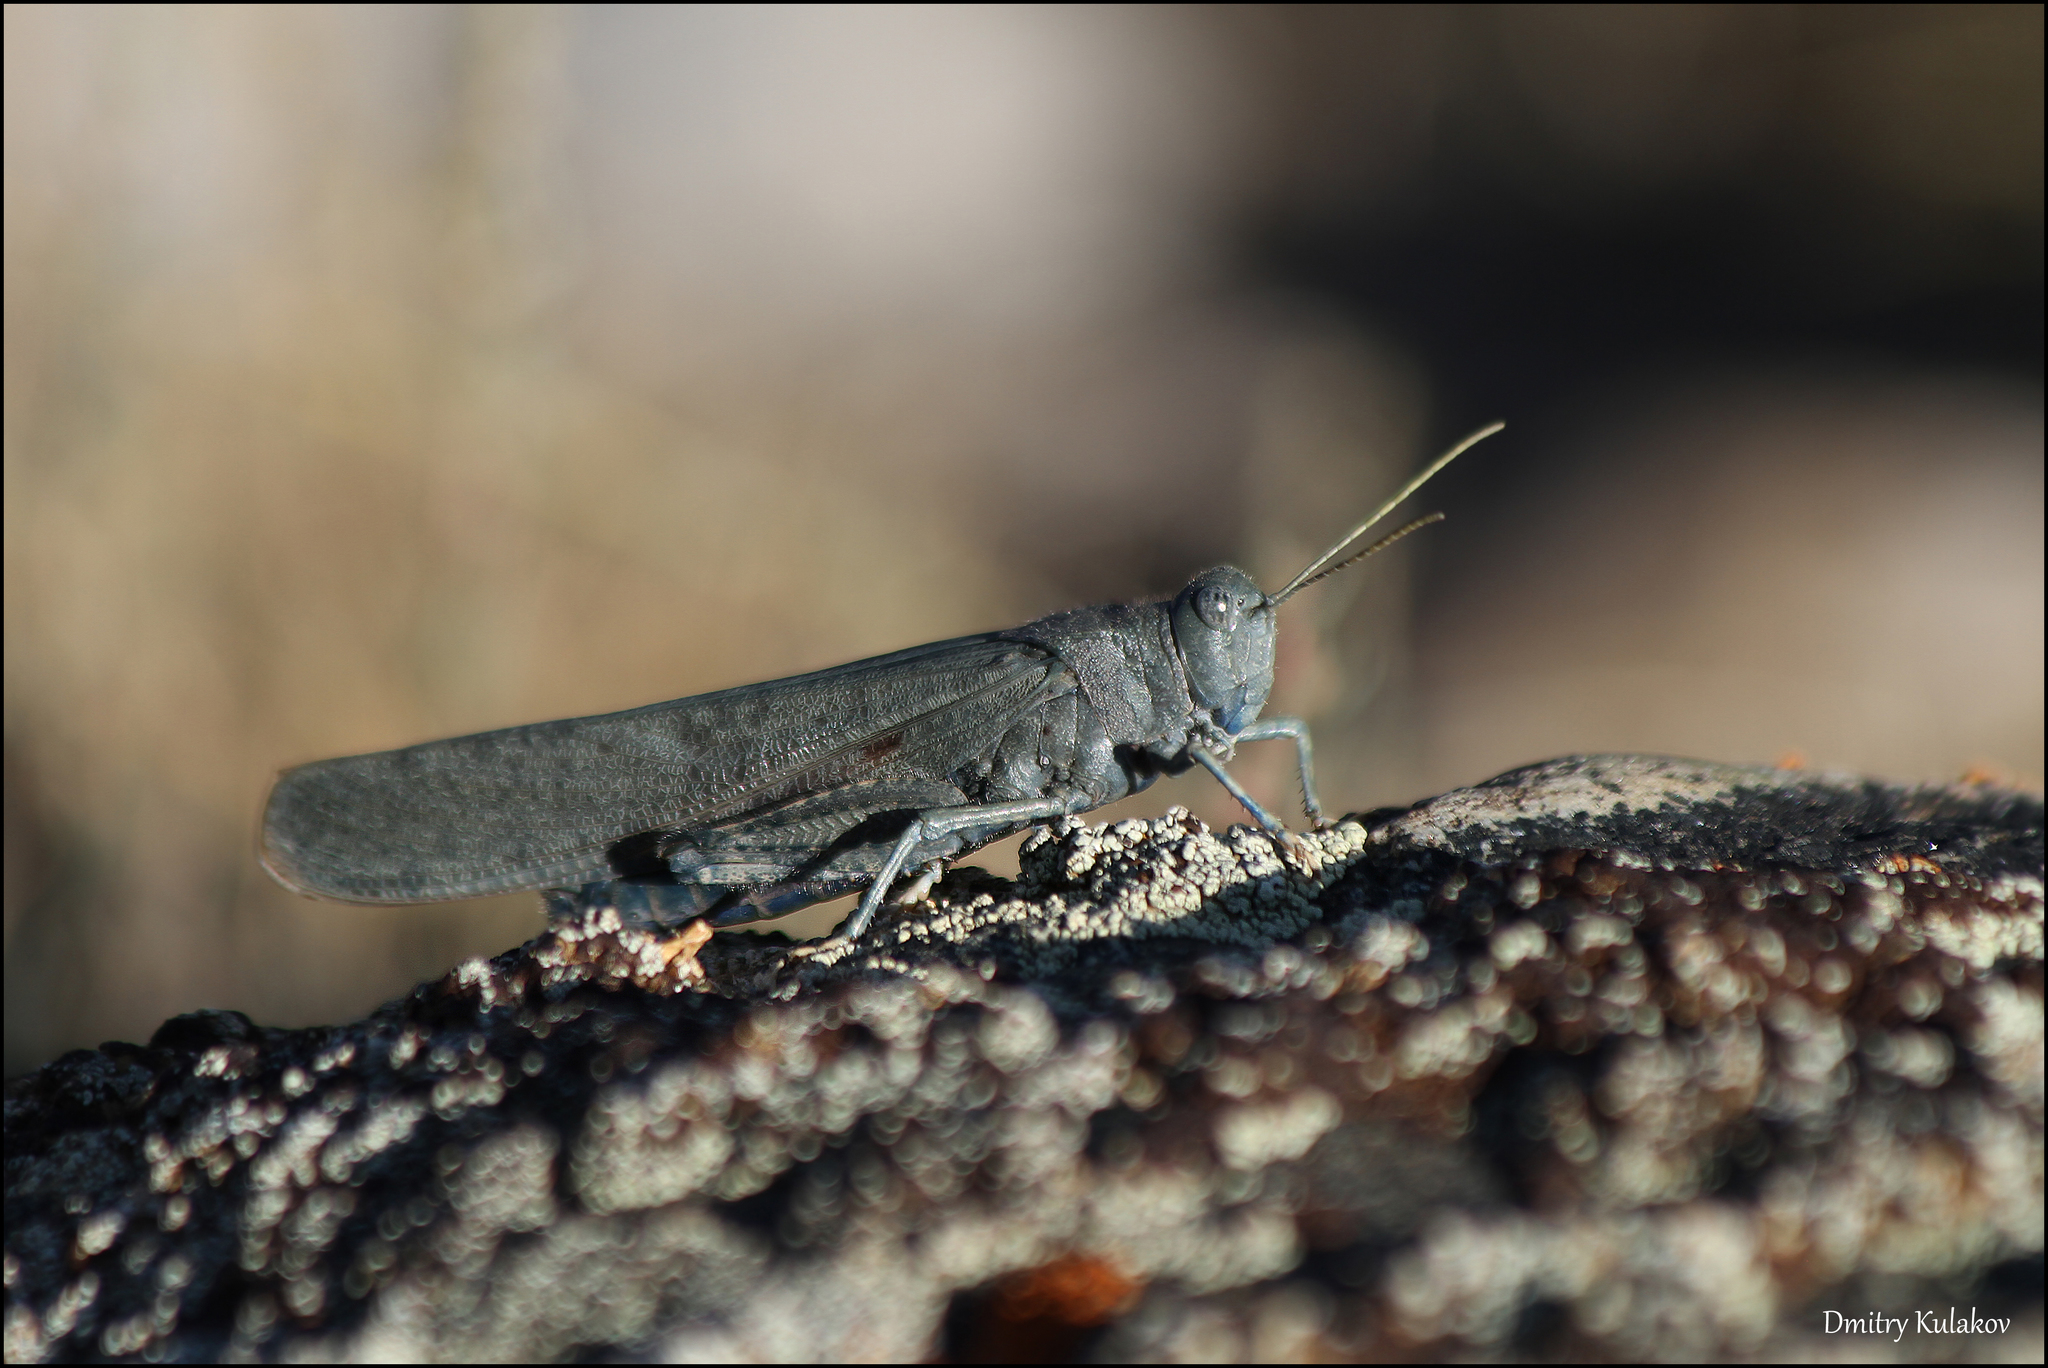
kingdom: Animalia
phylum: Arthropoda
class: Insecta
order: Orthoptera
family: Acrididae
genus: Bryodema
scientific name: Bryodema gebleri
